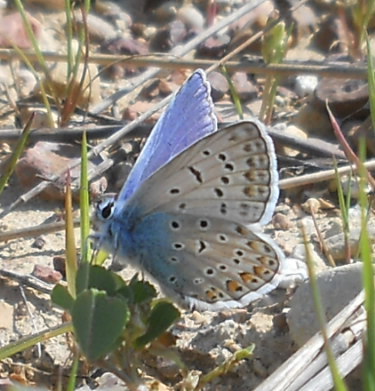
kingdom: Animalia
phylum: Arthropoda
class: Insecta
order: Lepidoptera
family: Lycaenidae
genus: Polyommatus
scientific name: Polyommatus icarus
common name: Common blue
